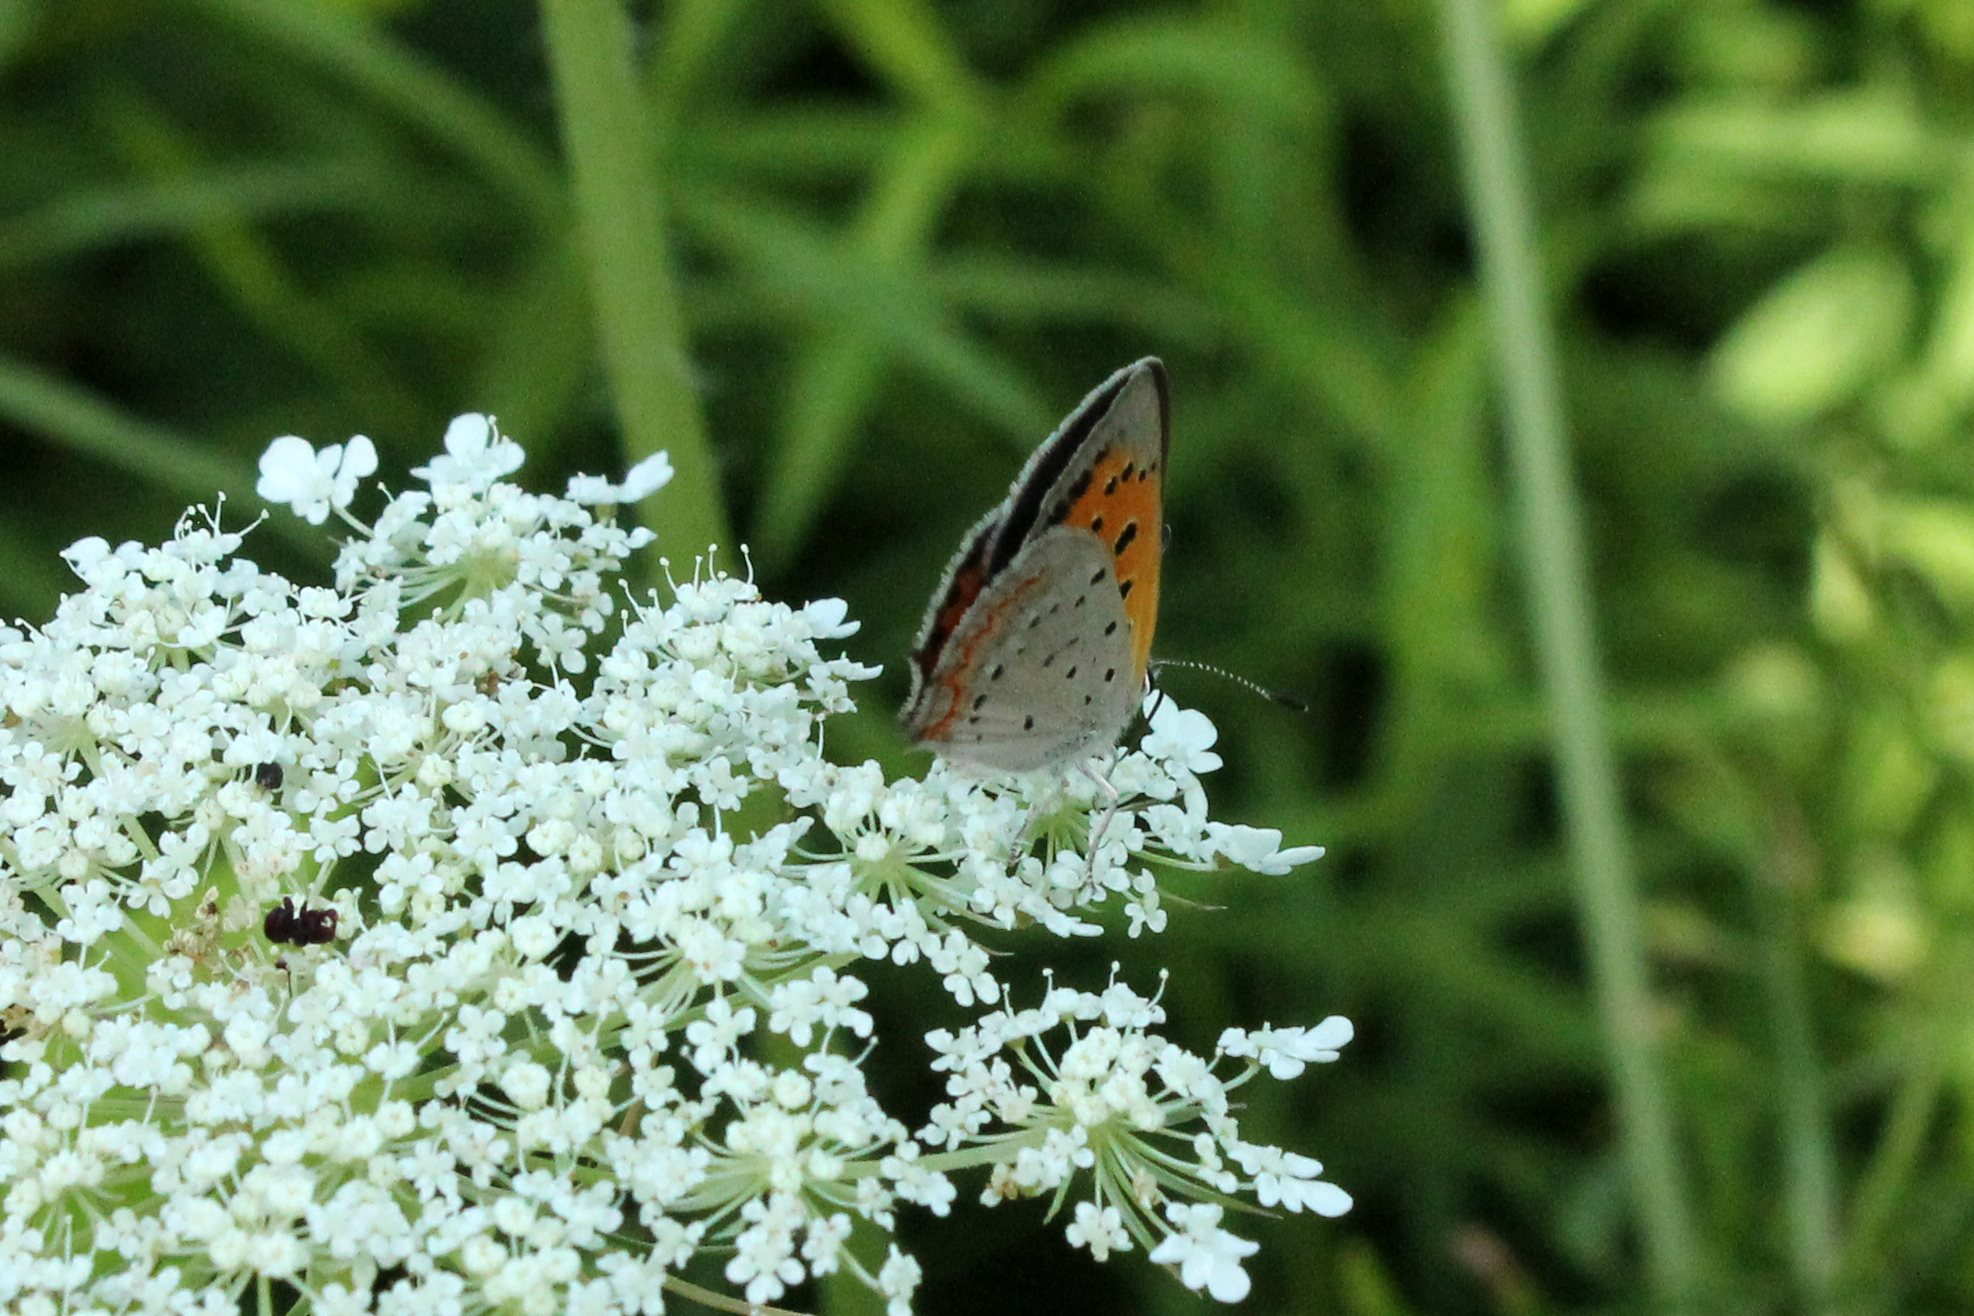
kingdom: Animalia
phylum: Arthropoda
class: Insecta
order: Lepidoptera
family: Lycaenidae
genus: Lycaena
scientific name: Lycaena hypophlaeas
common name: American copper
